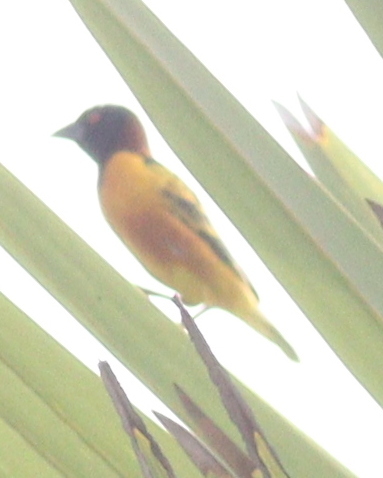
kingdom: Animalia
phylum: Chordata
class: Aves
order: Passeriformes
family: Ploceidae
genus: Ploceus
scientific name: Ploceus cucullatus
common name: Village weaver
